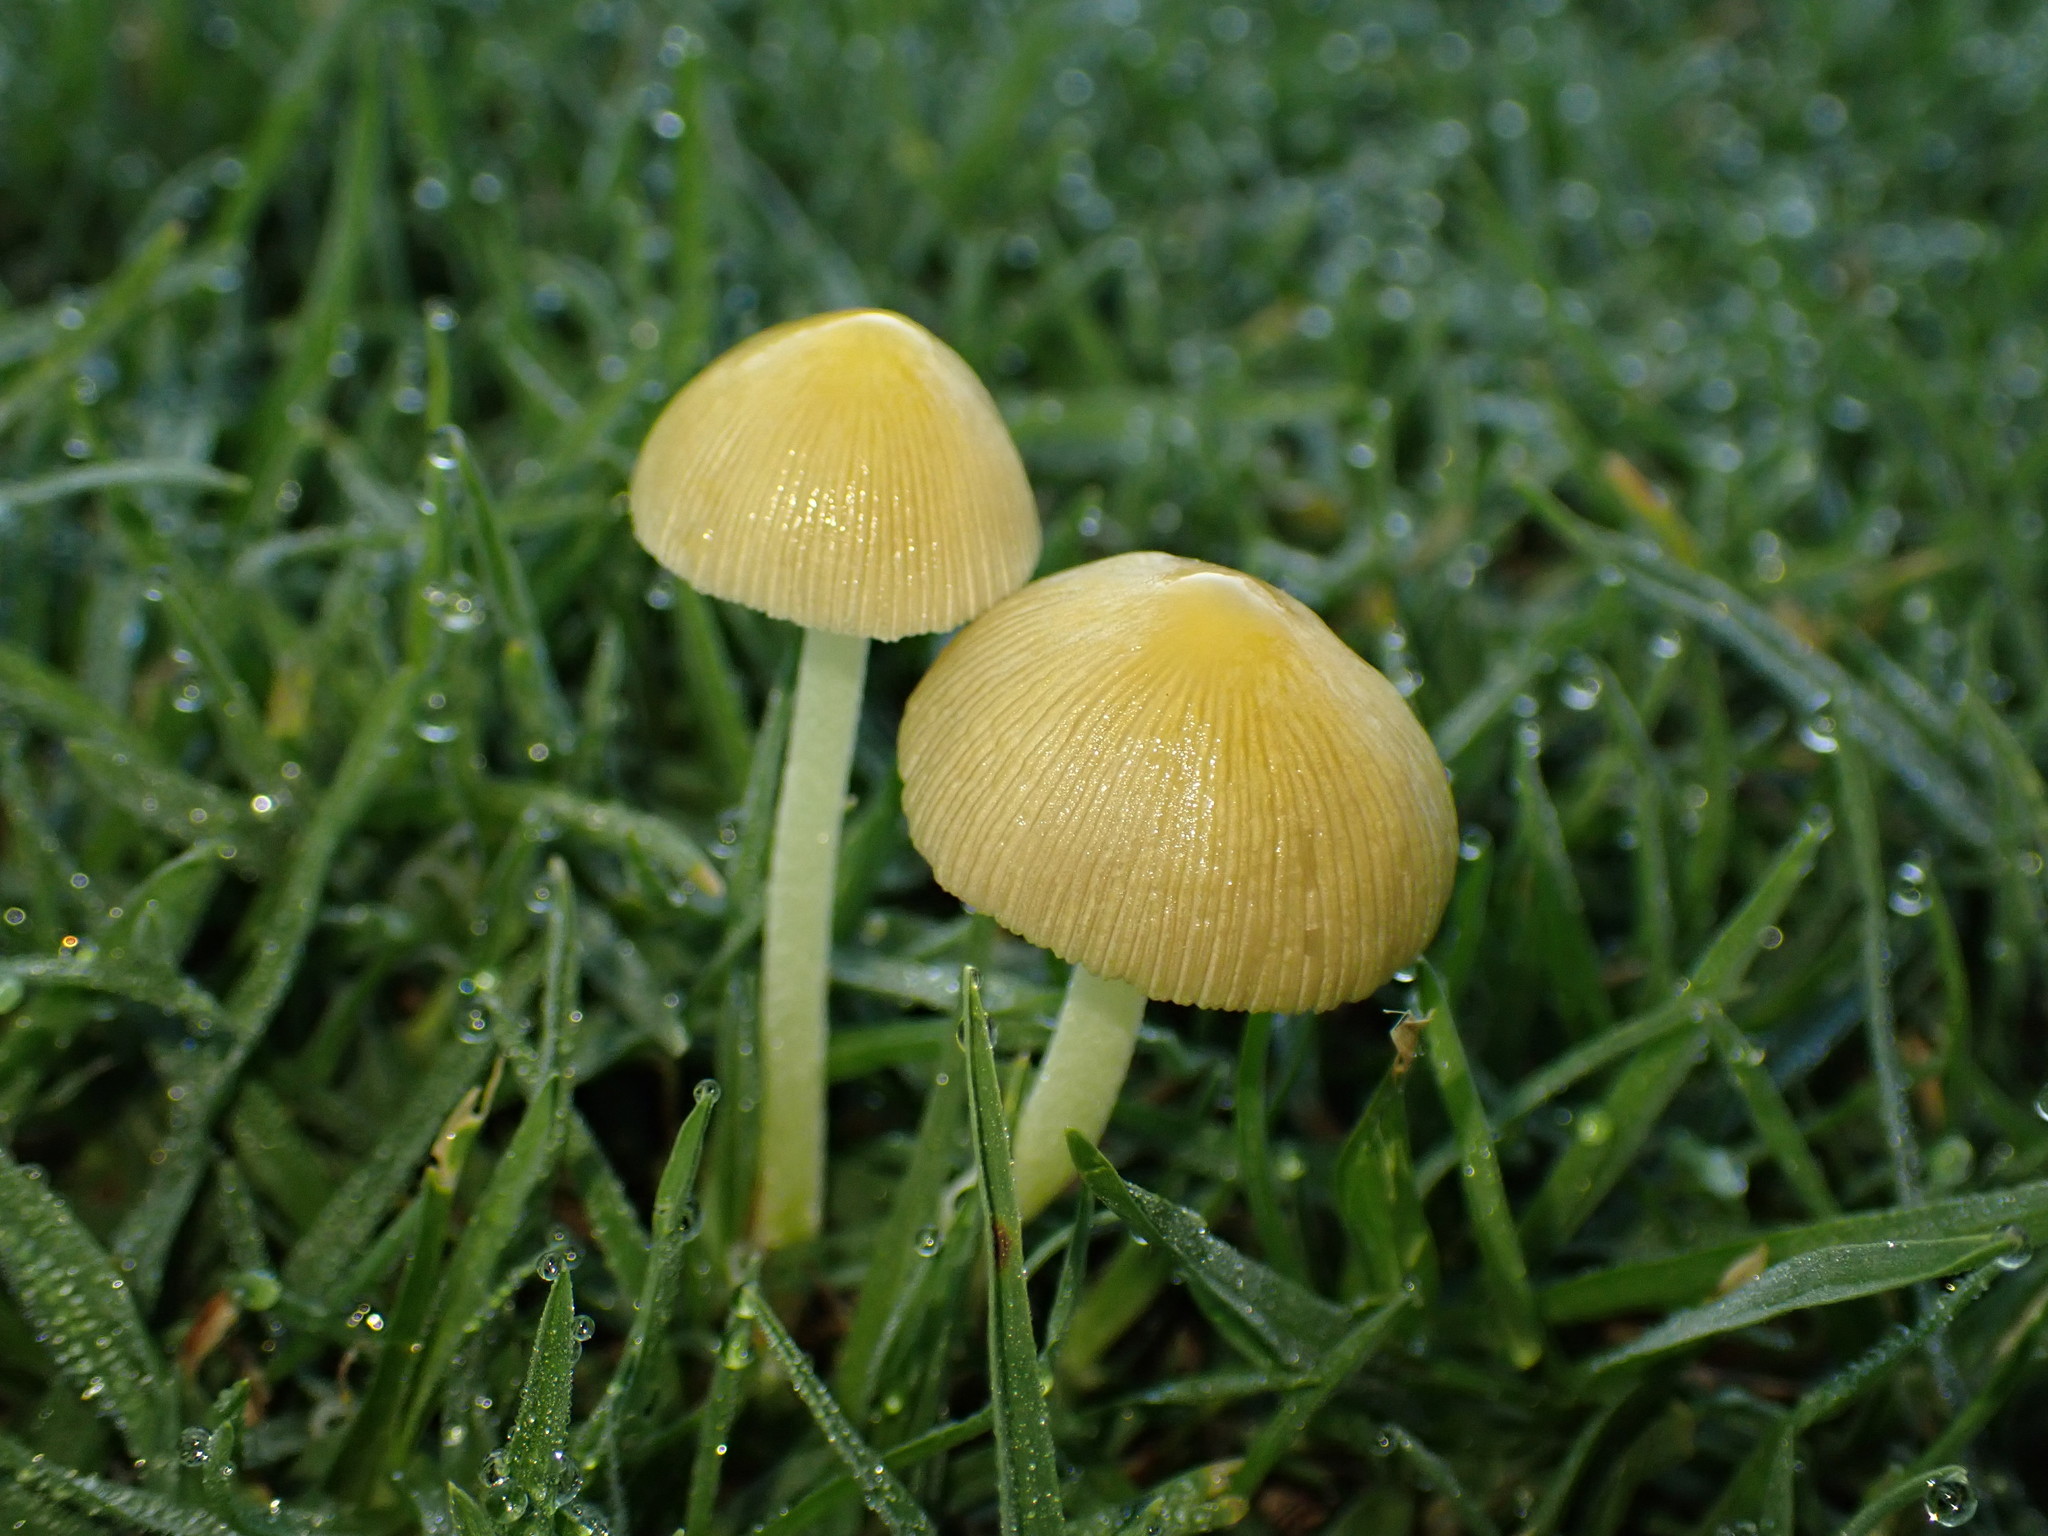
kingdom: Fungi
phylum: Basidiomycota
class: Agaricomycetes
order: Agaricales
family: Bolbitiaceae
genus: Bolbitius
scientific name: Bolbitius titubans
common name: Yellow fieldcap
